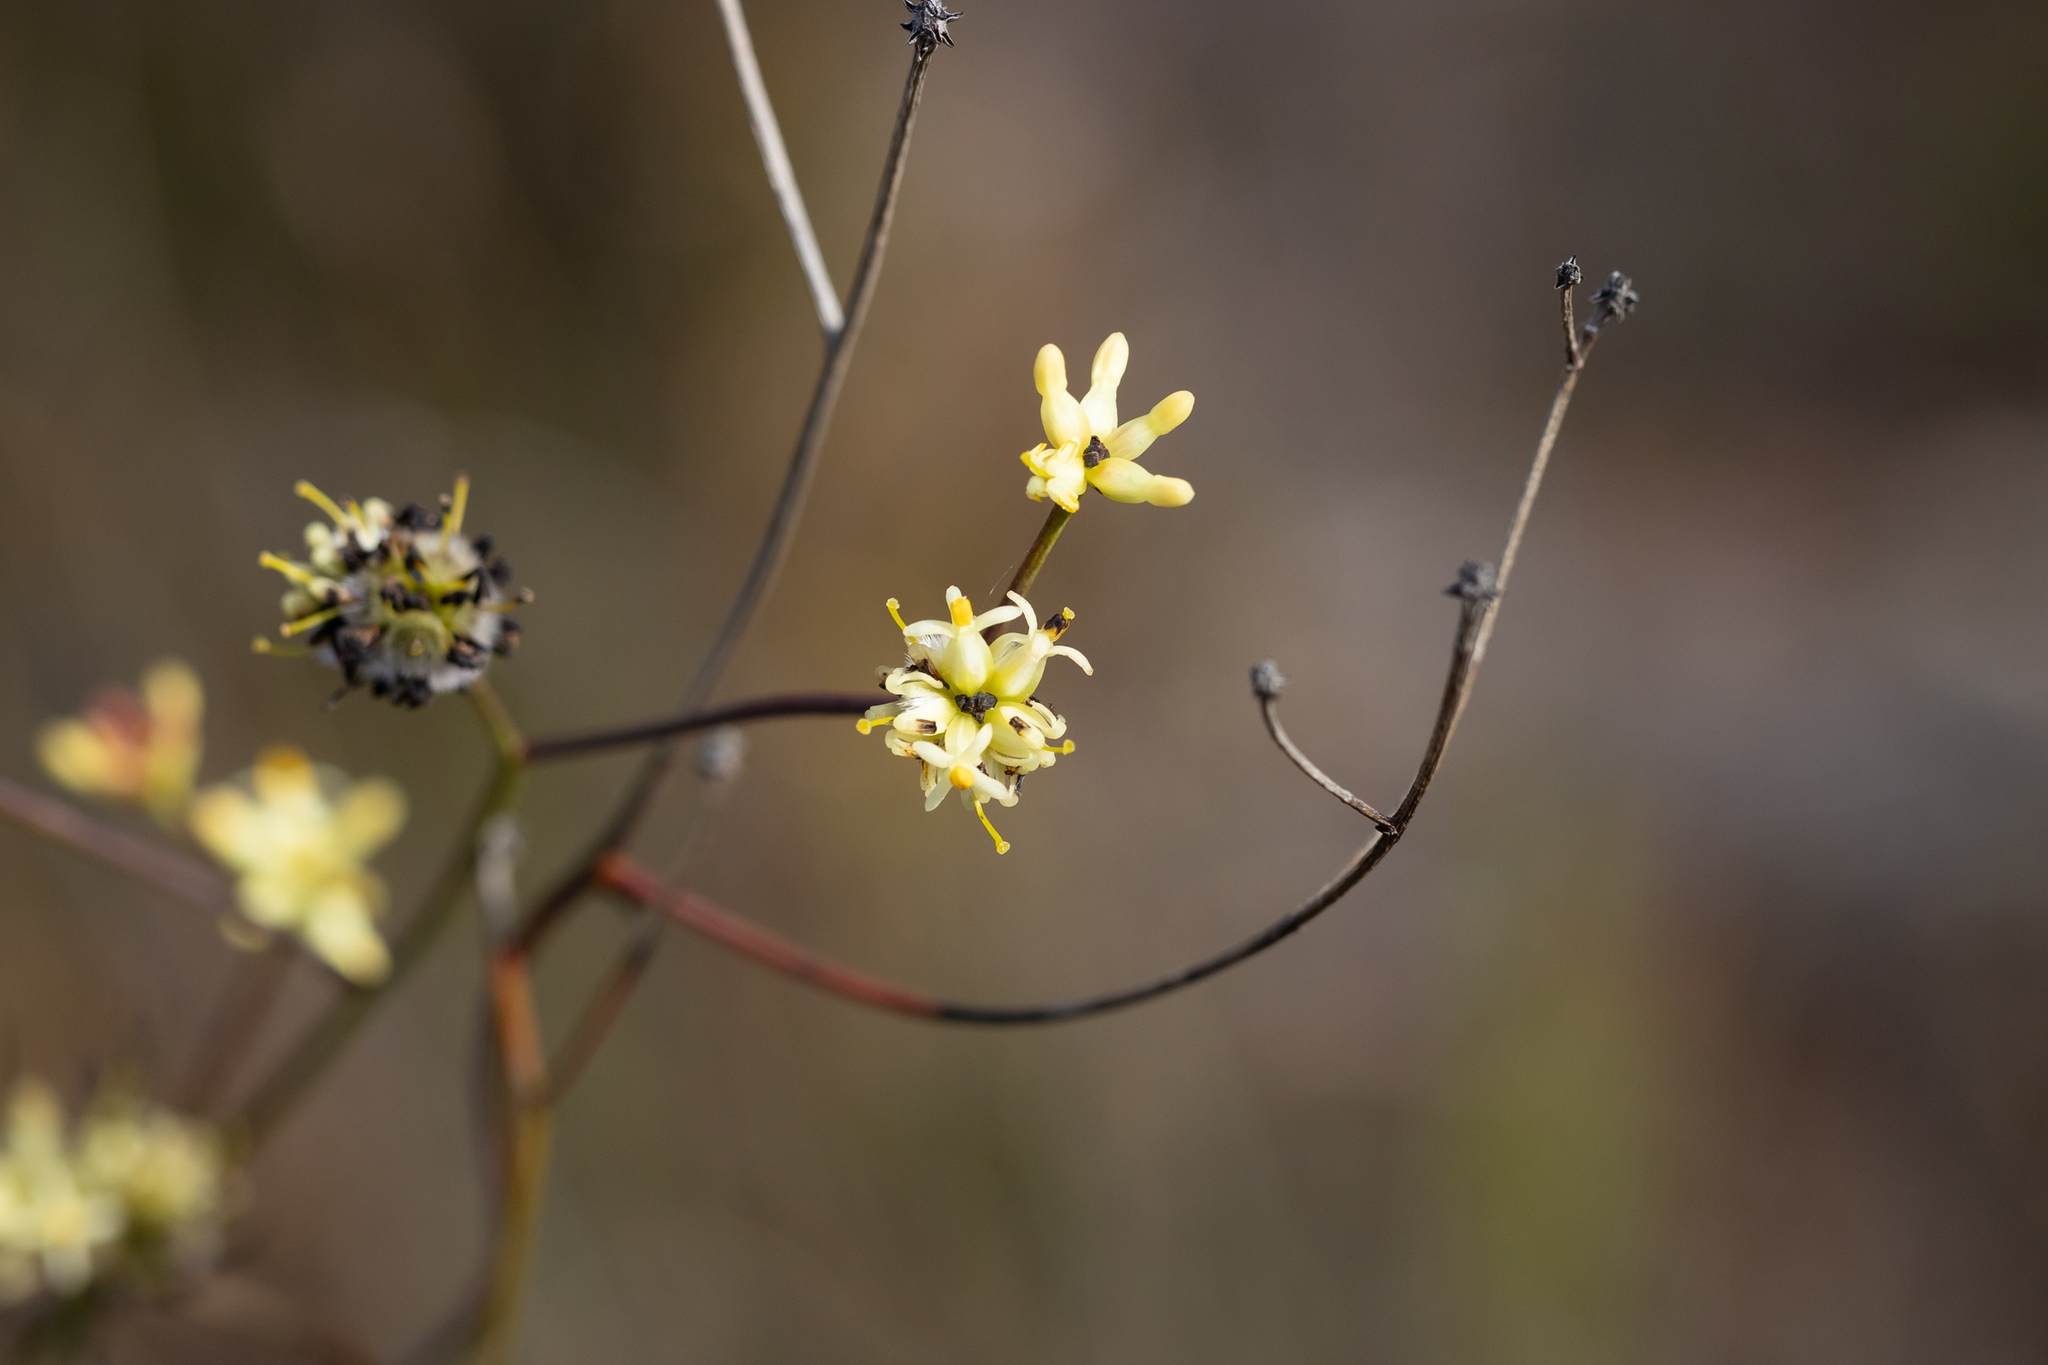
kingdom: Plantae
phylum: Tracheophyta
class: Magnoliopsida
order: Proteales
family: Proteaceae
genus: Stirlingia
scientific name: Stirlingia tenuifolia
